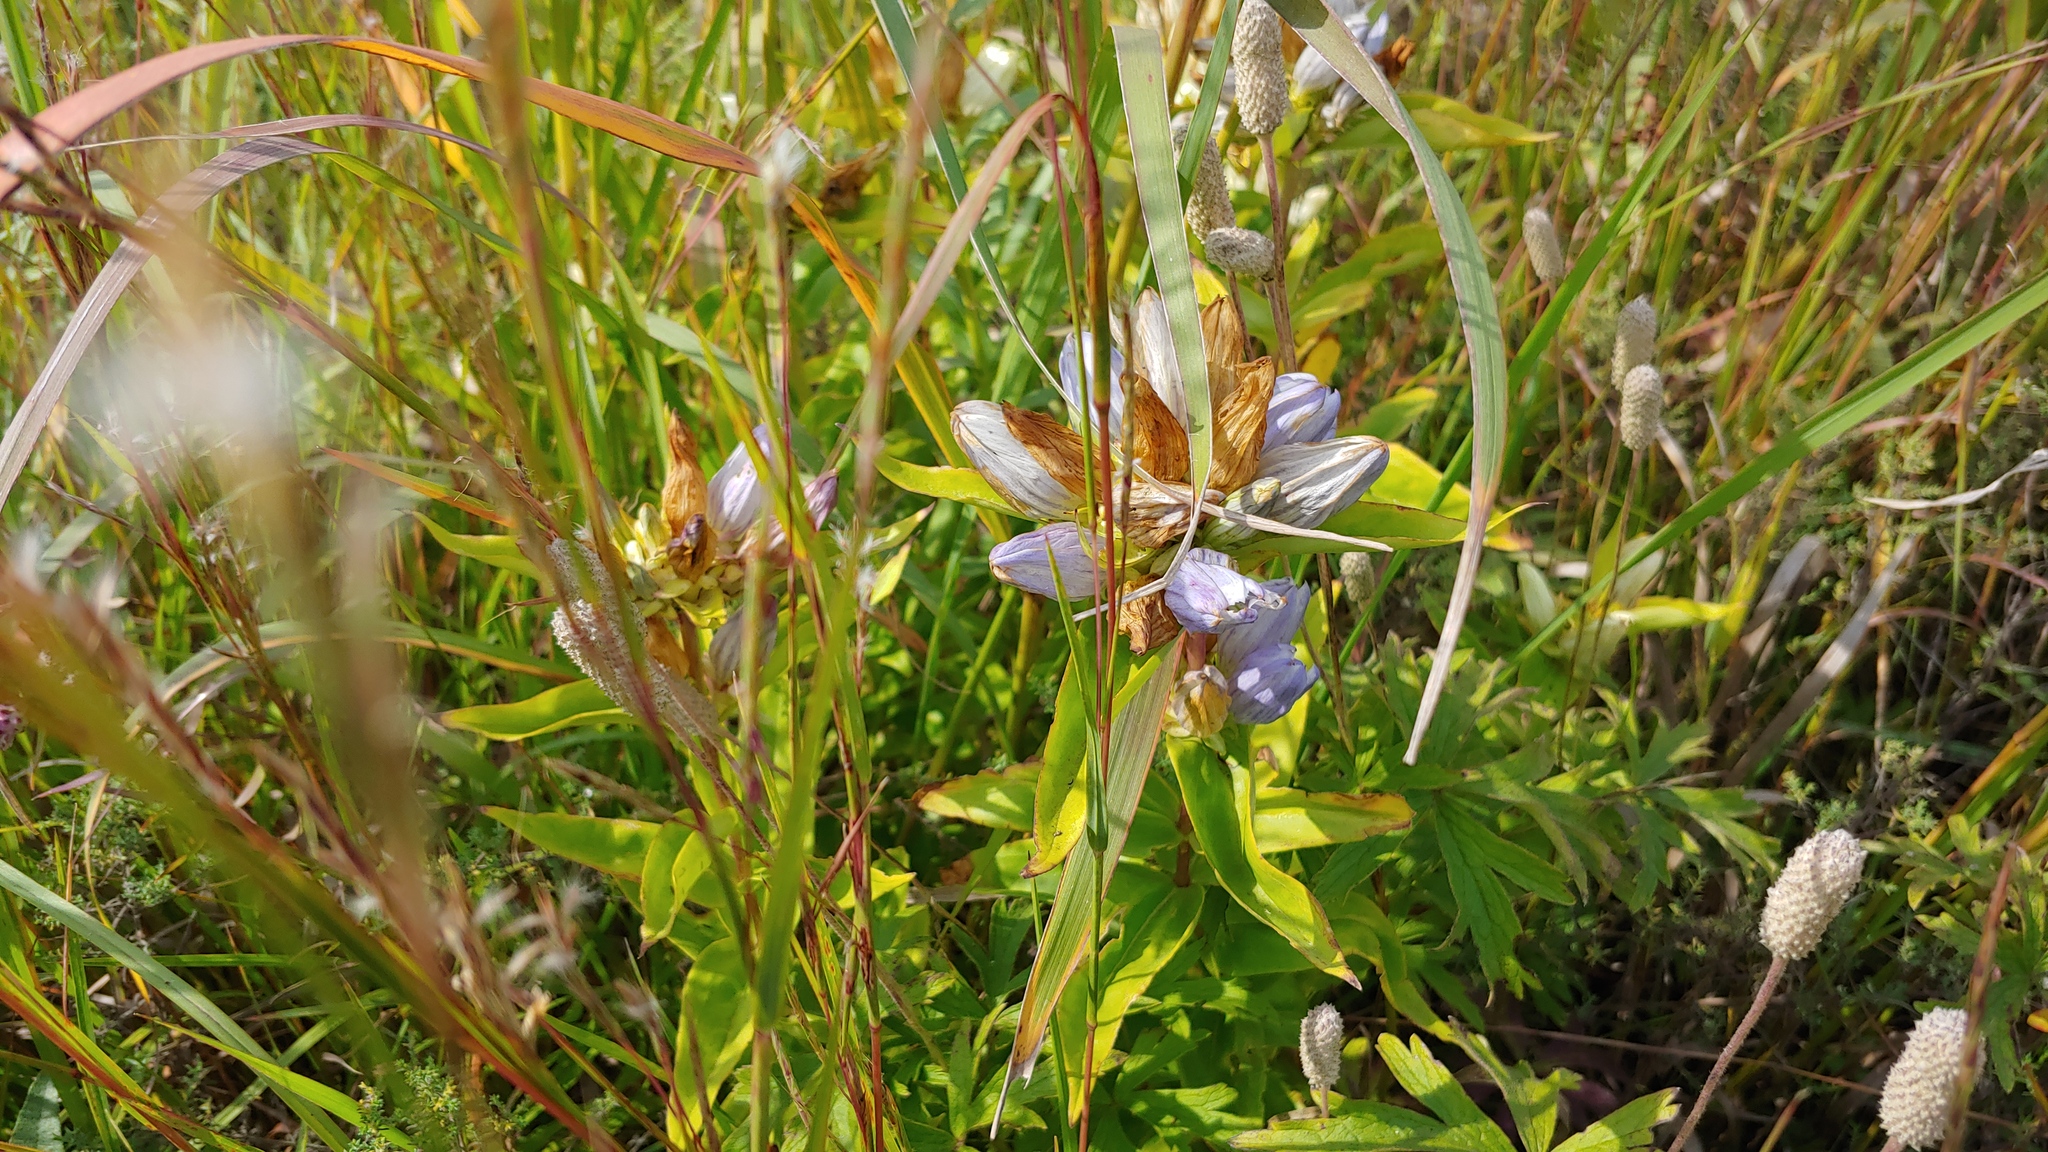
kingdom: Plantae
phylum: Tracheophyta
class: Magnoliopsida
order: Gentianales
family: Gentianaceae
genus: Gentiana
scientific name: Gentiana pallidocyanea
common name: Hybrid bottle gentian
